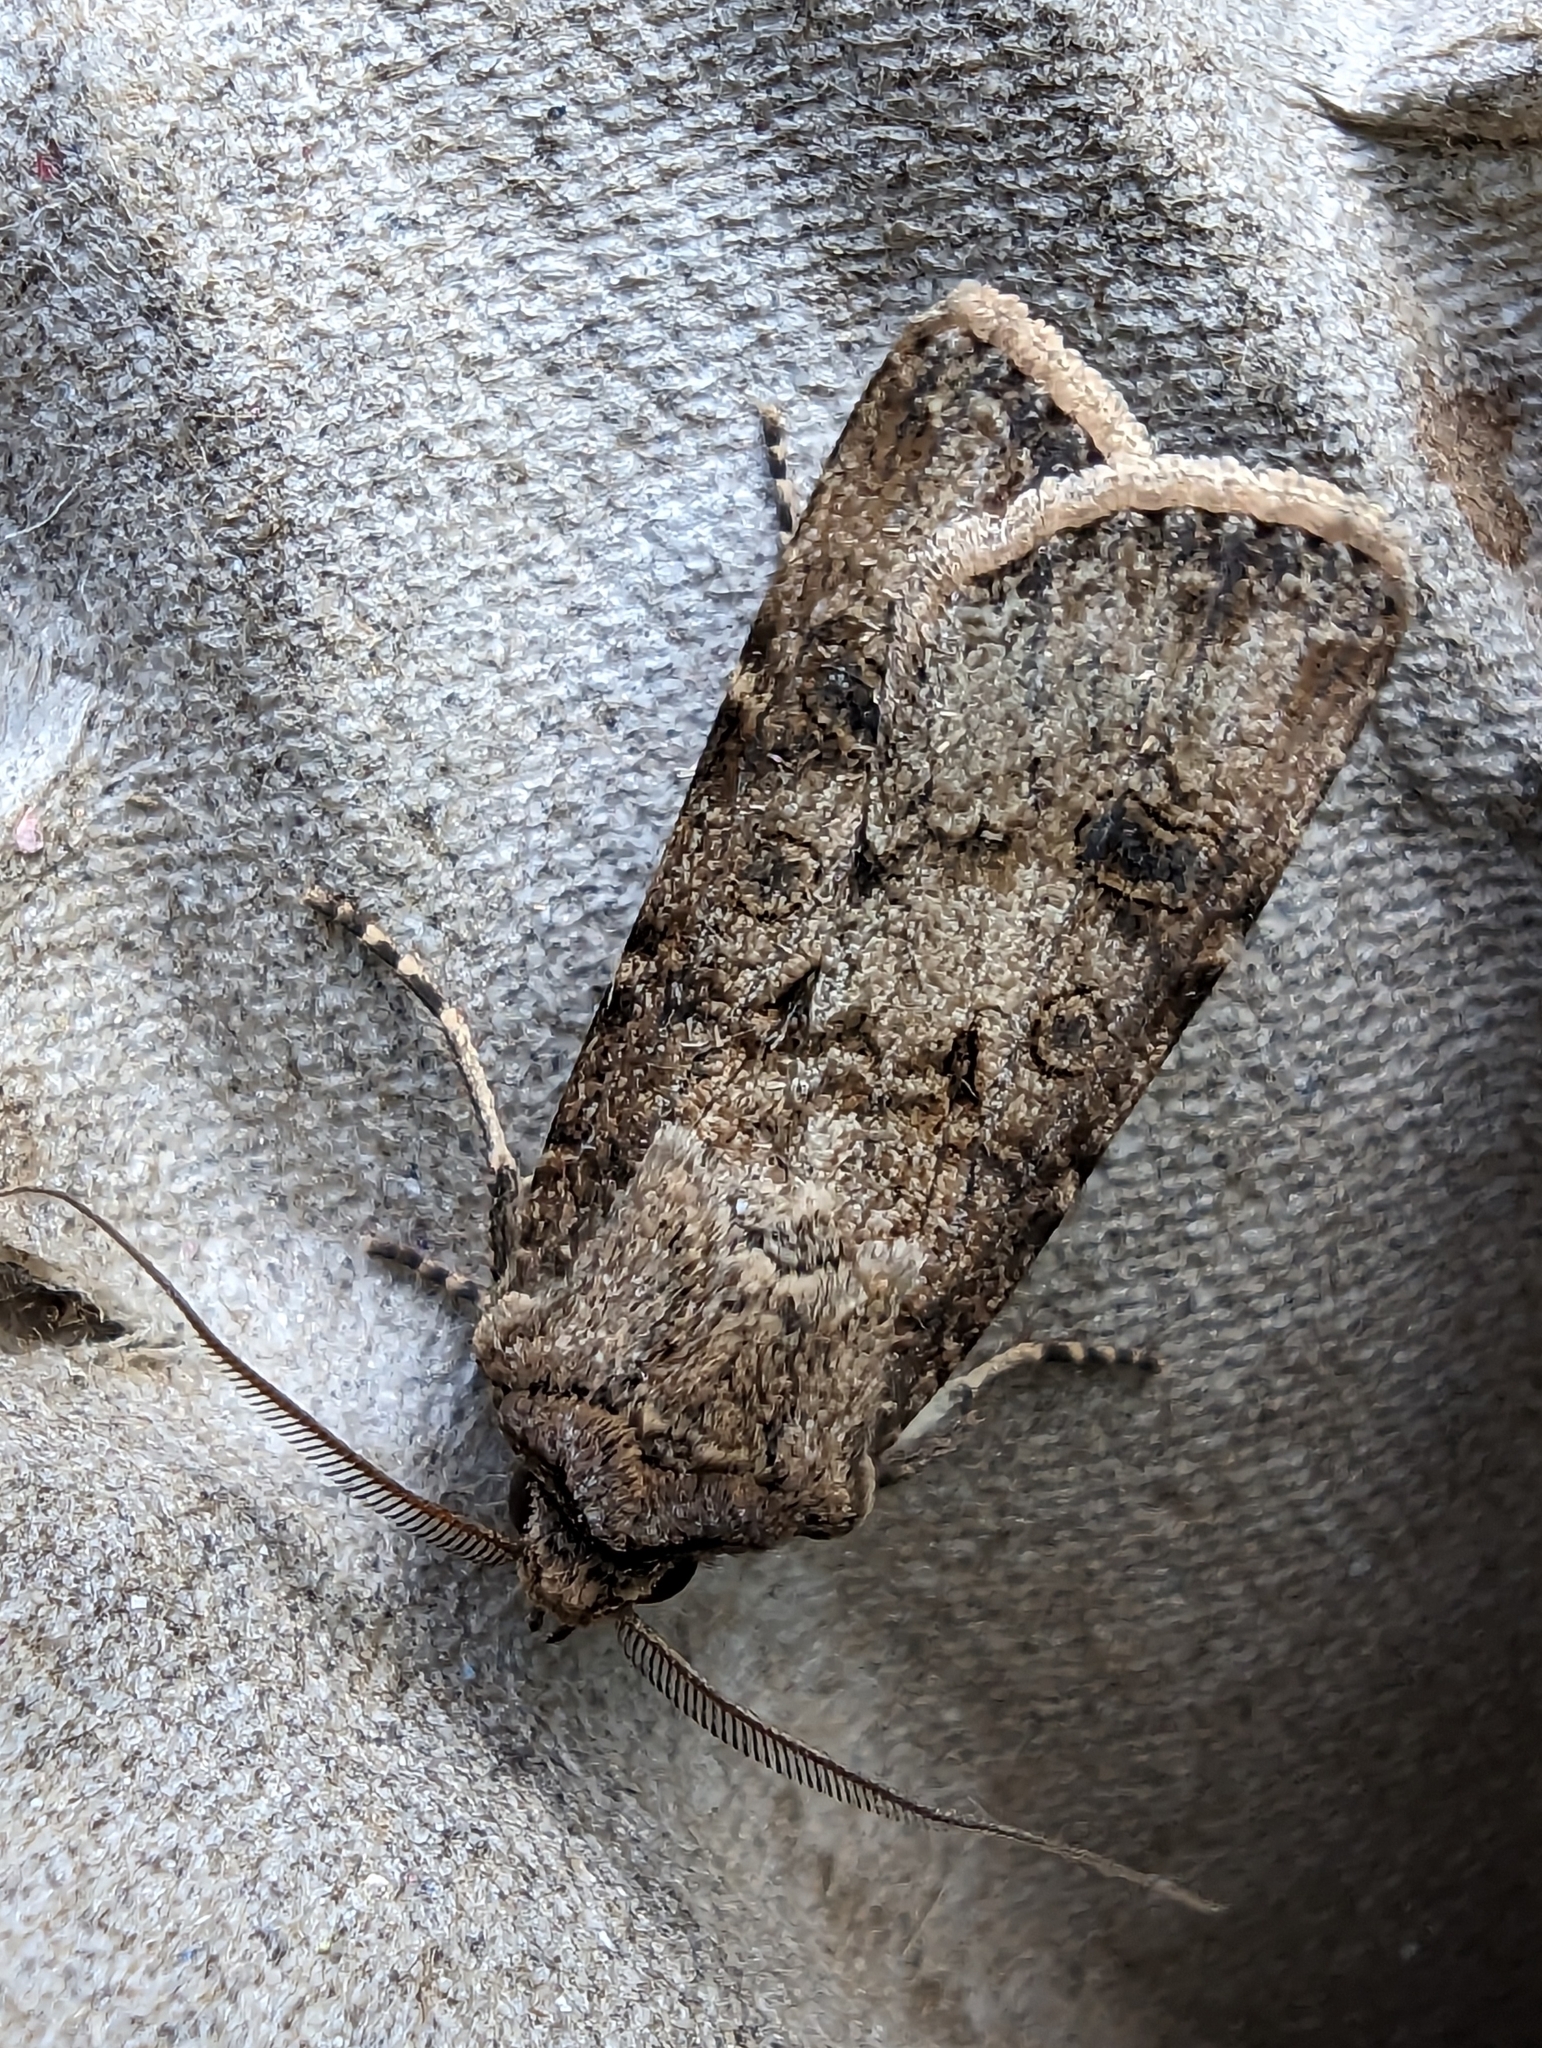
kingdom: Animalia
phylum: Arthropoda
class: Insecta
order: Lepidoptera
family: Noctuidae
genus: Agrotis
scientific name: Agrotis segetum
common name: Turnip moth
